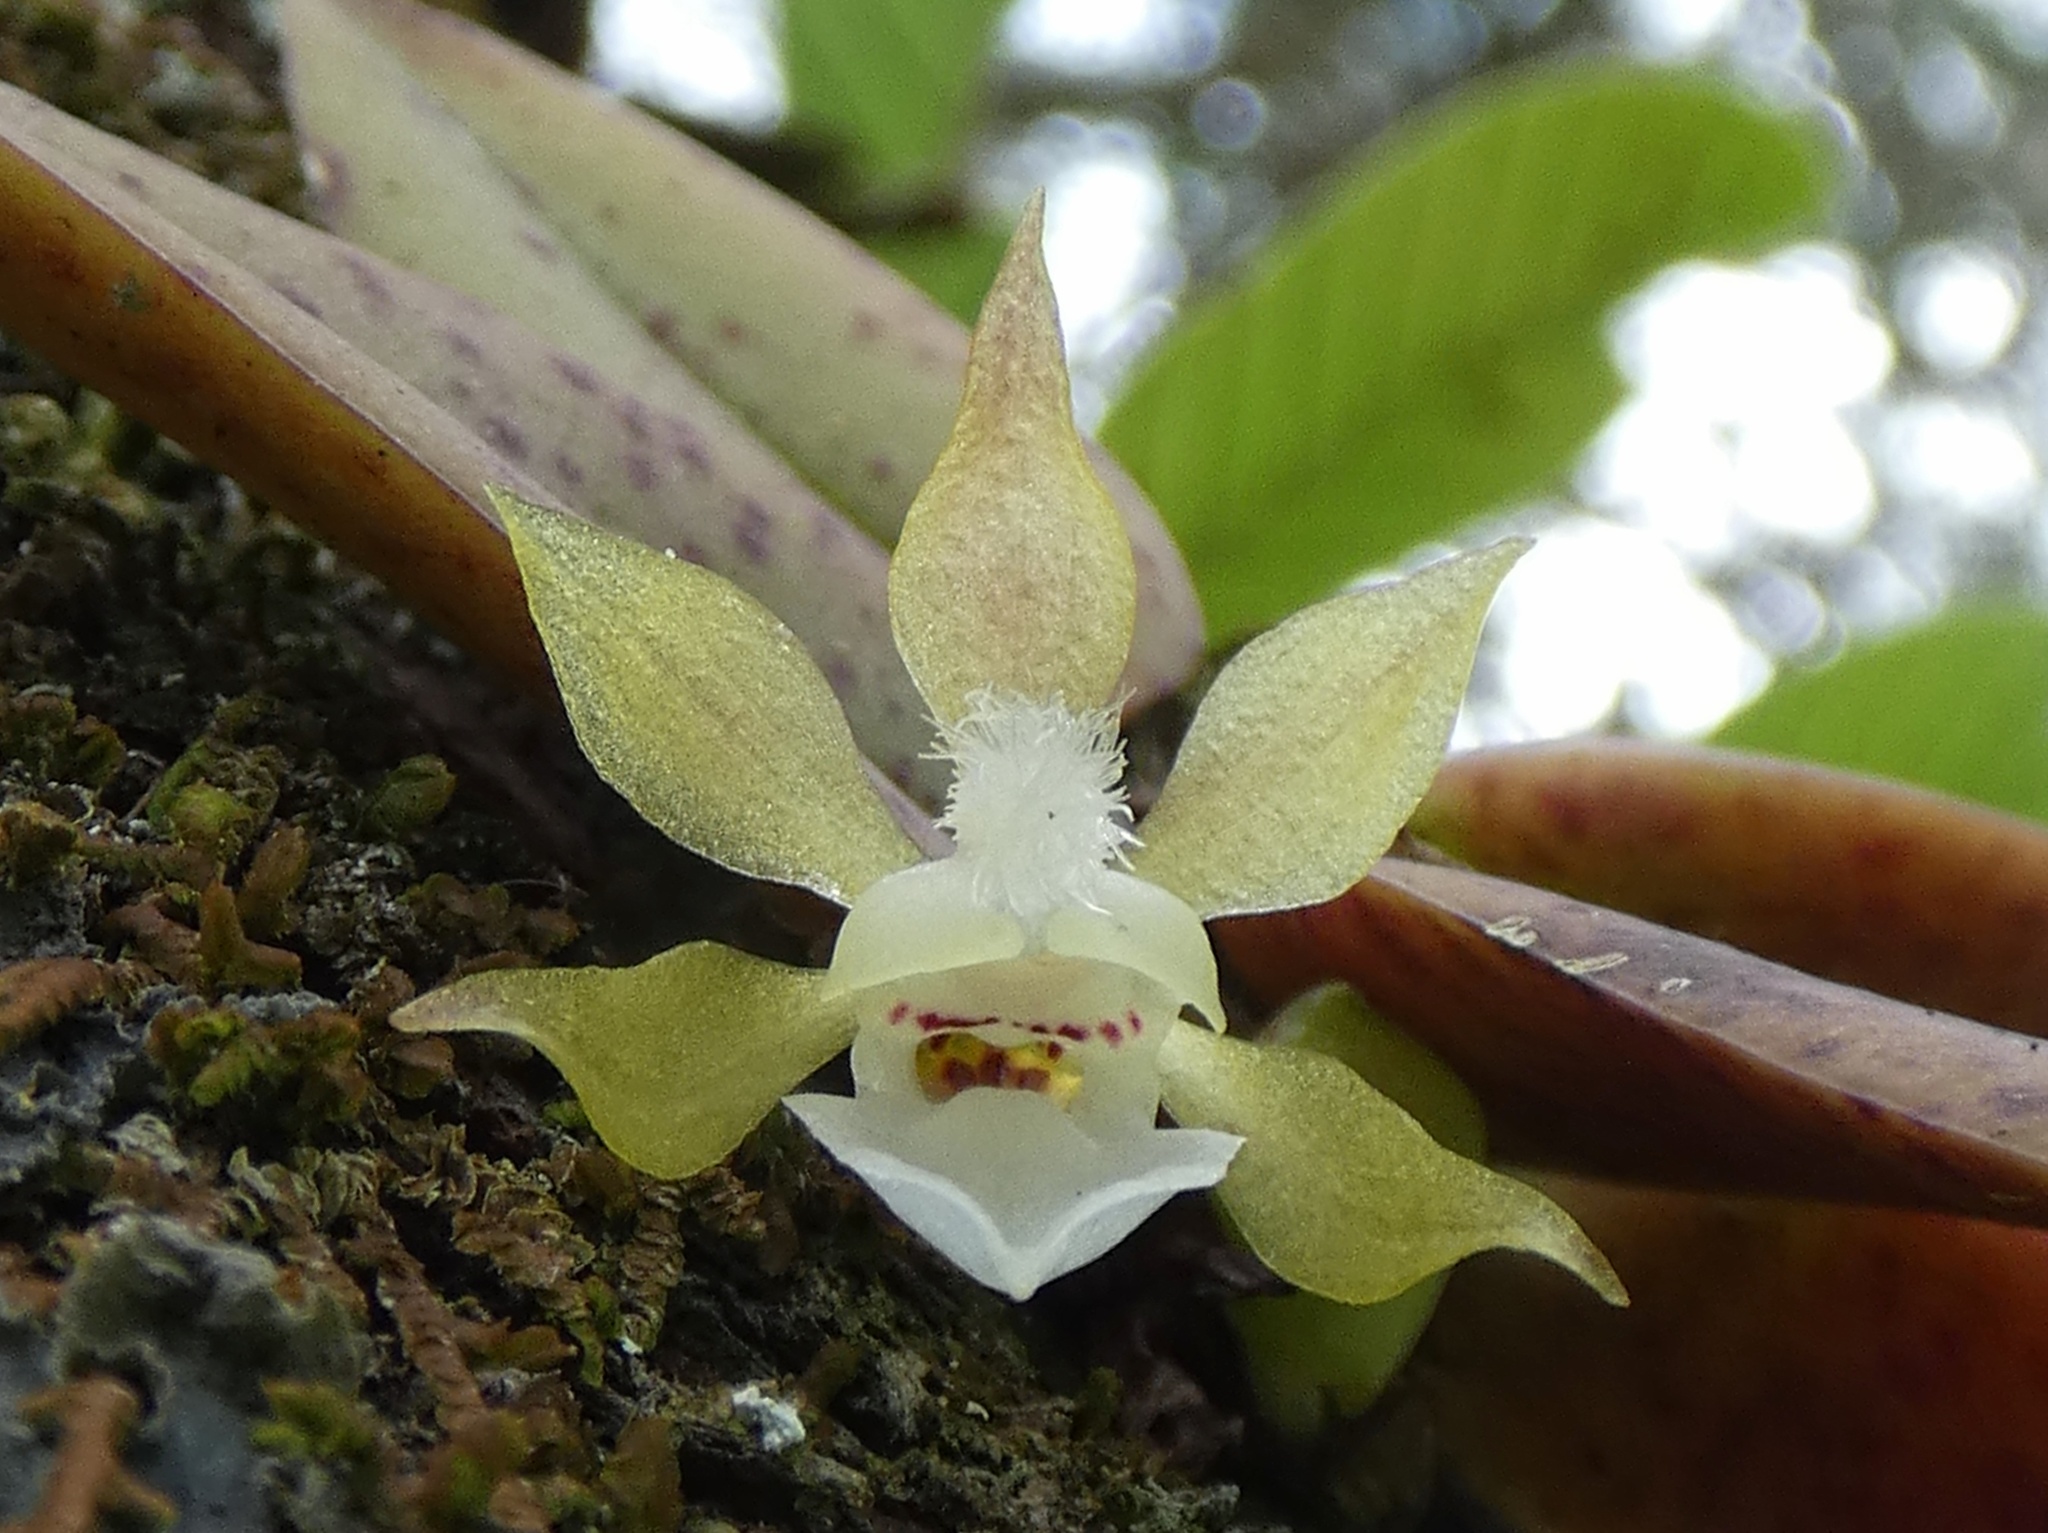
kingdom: Plantae
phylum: Tracheophyta
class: Liliopsida
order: Asparagales
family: Orchidaceae
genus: Trichocentrum
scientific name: Trichocentrum capistratum
